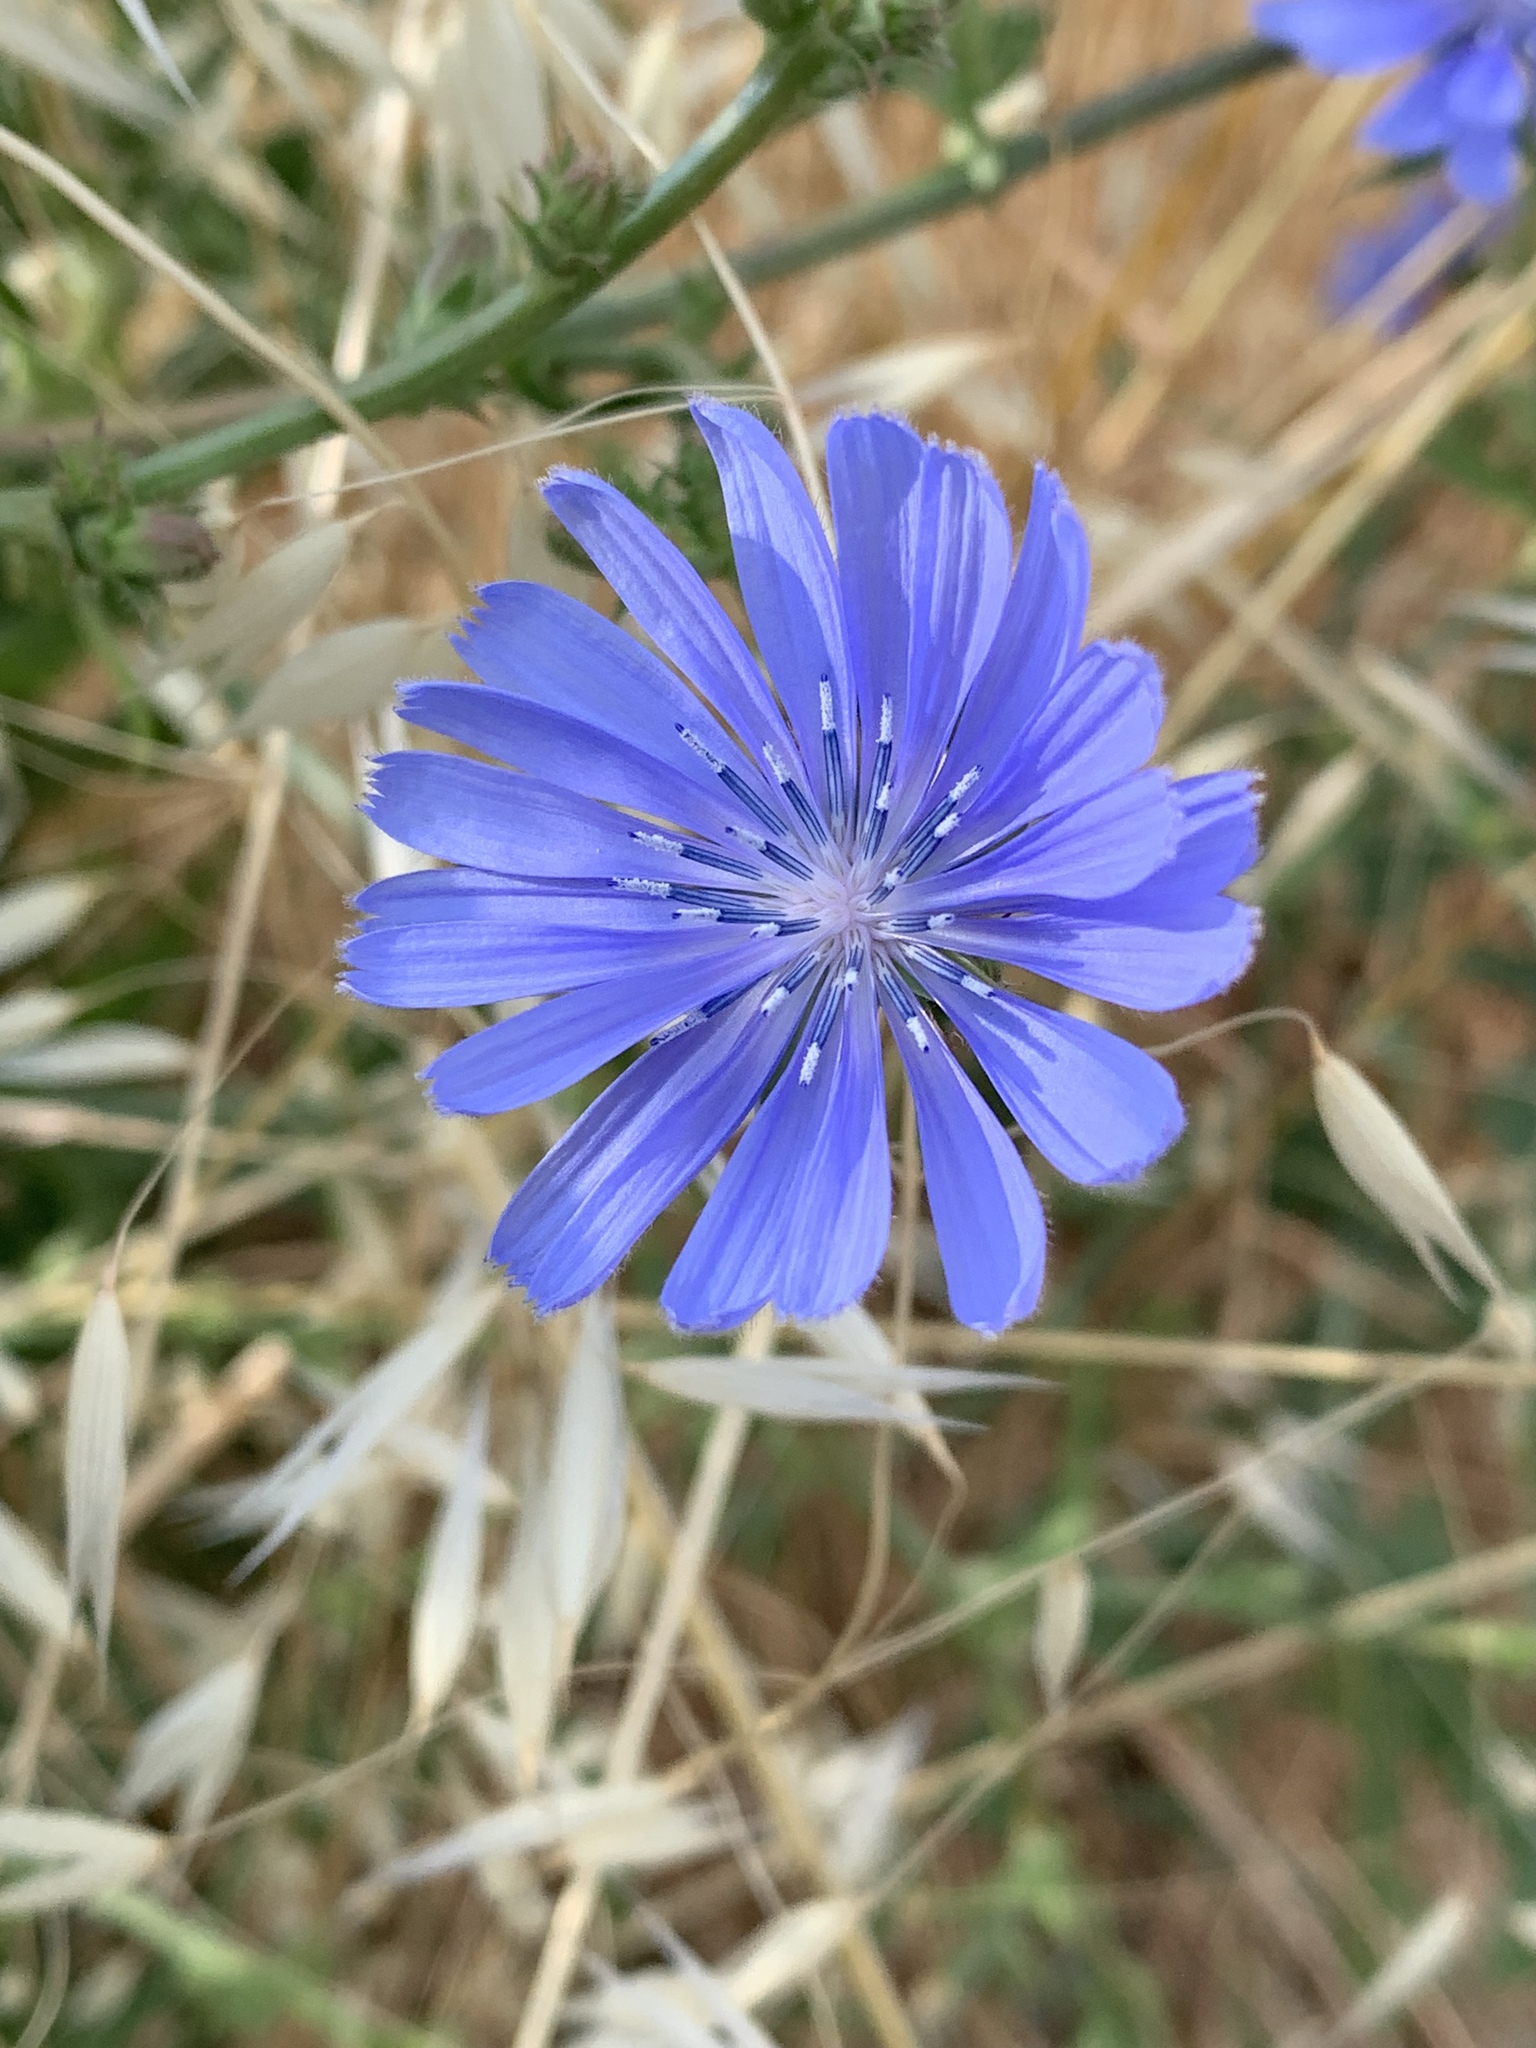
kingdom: Plantae
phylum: Tracheophyta
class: Magnoliopsida
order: Asterales
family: Asteraceae
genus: Cichorium
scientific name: Cichorium intybus
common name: Chicory
